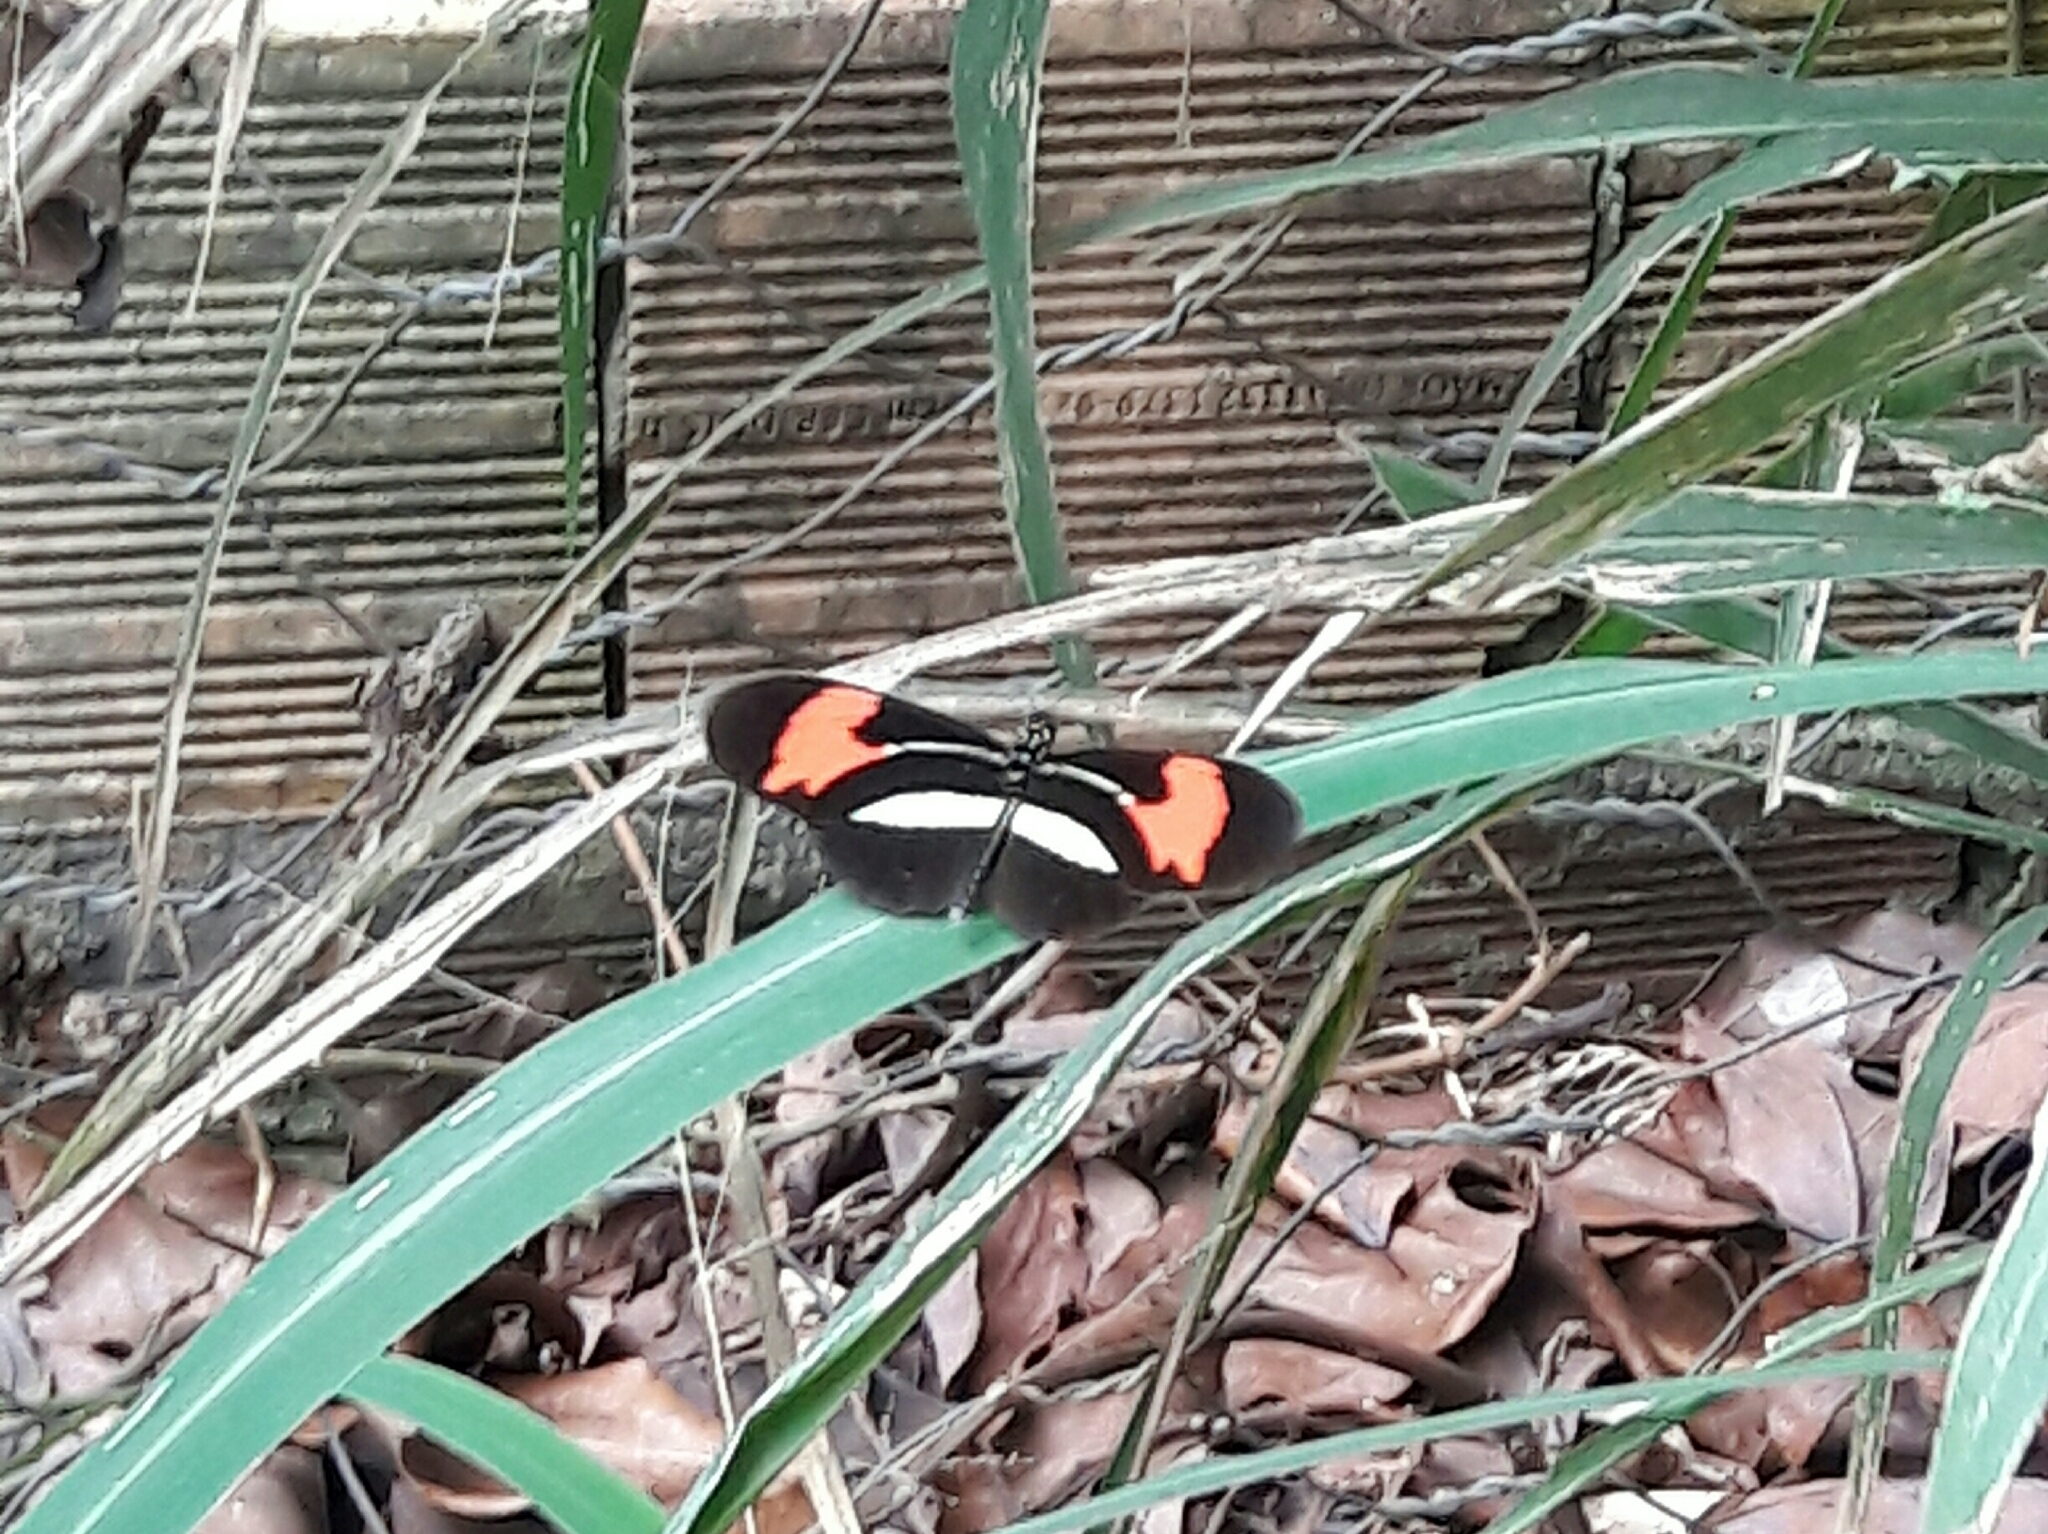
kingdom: Animalia
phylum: Arthropoda
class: Insecta
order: Lepidoptera
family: Nymphalidae
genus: Heliconius
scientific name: Heliconius erato
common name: Common patch longwing
